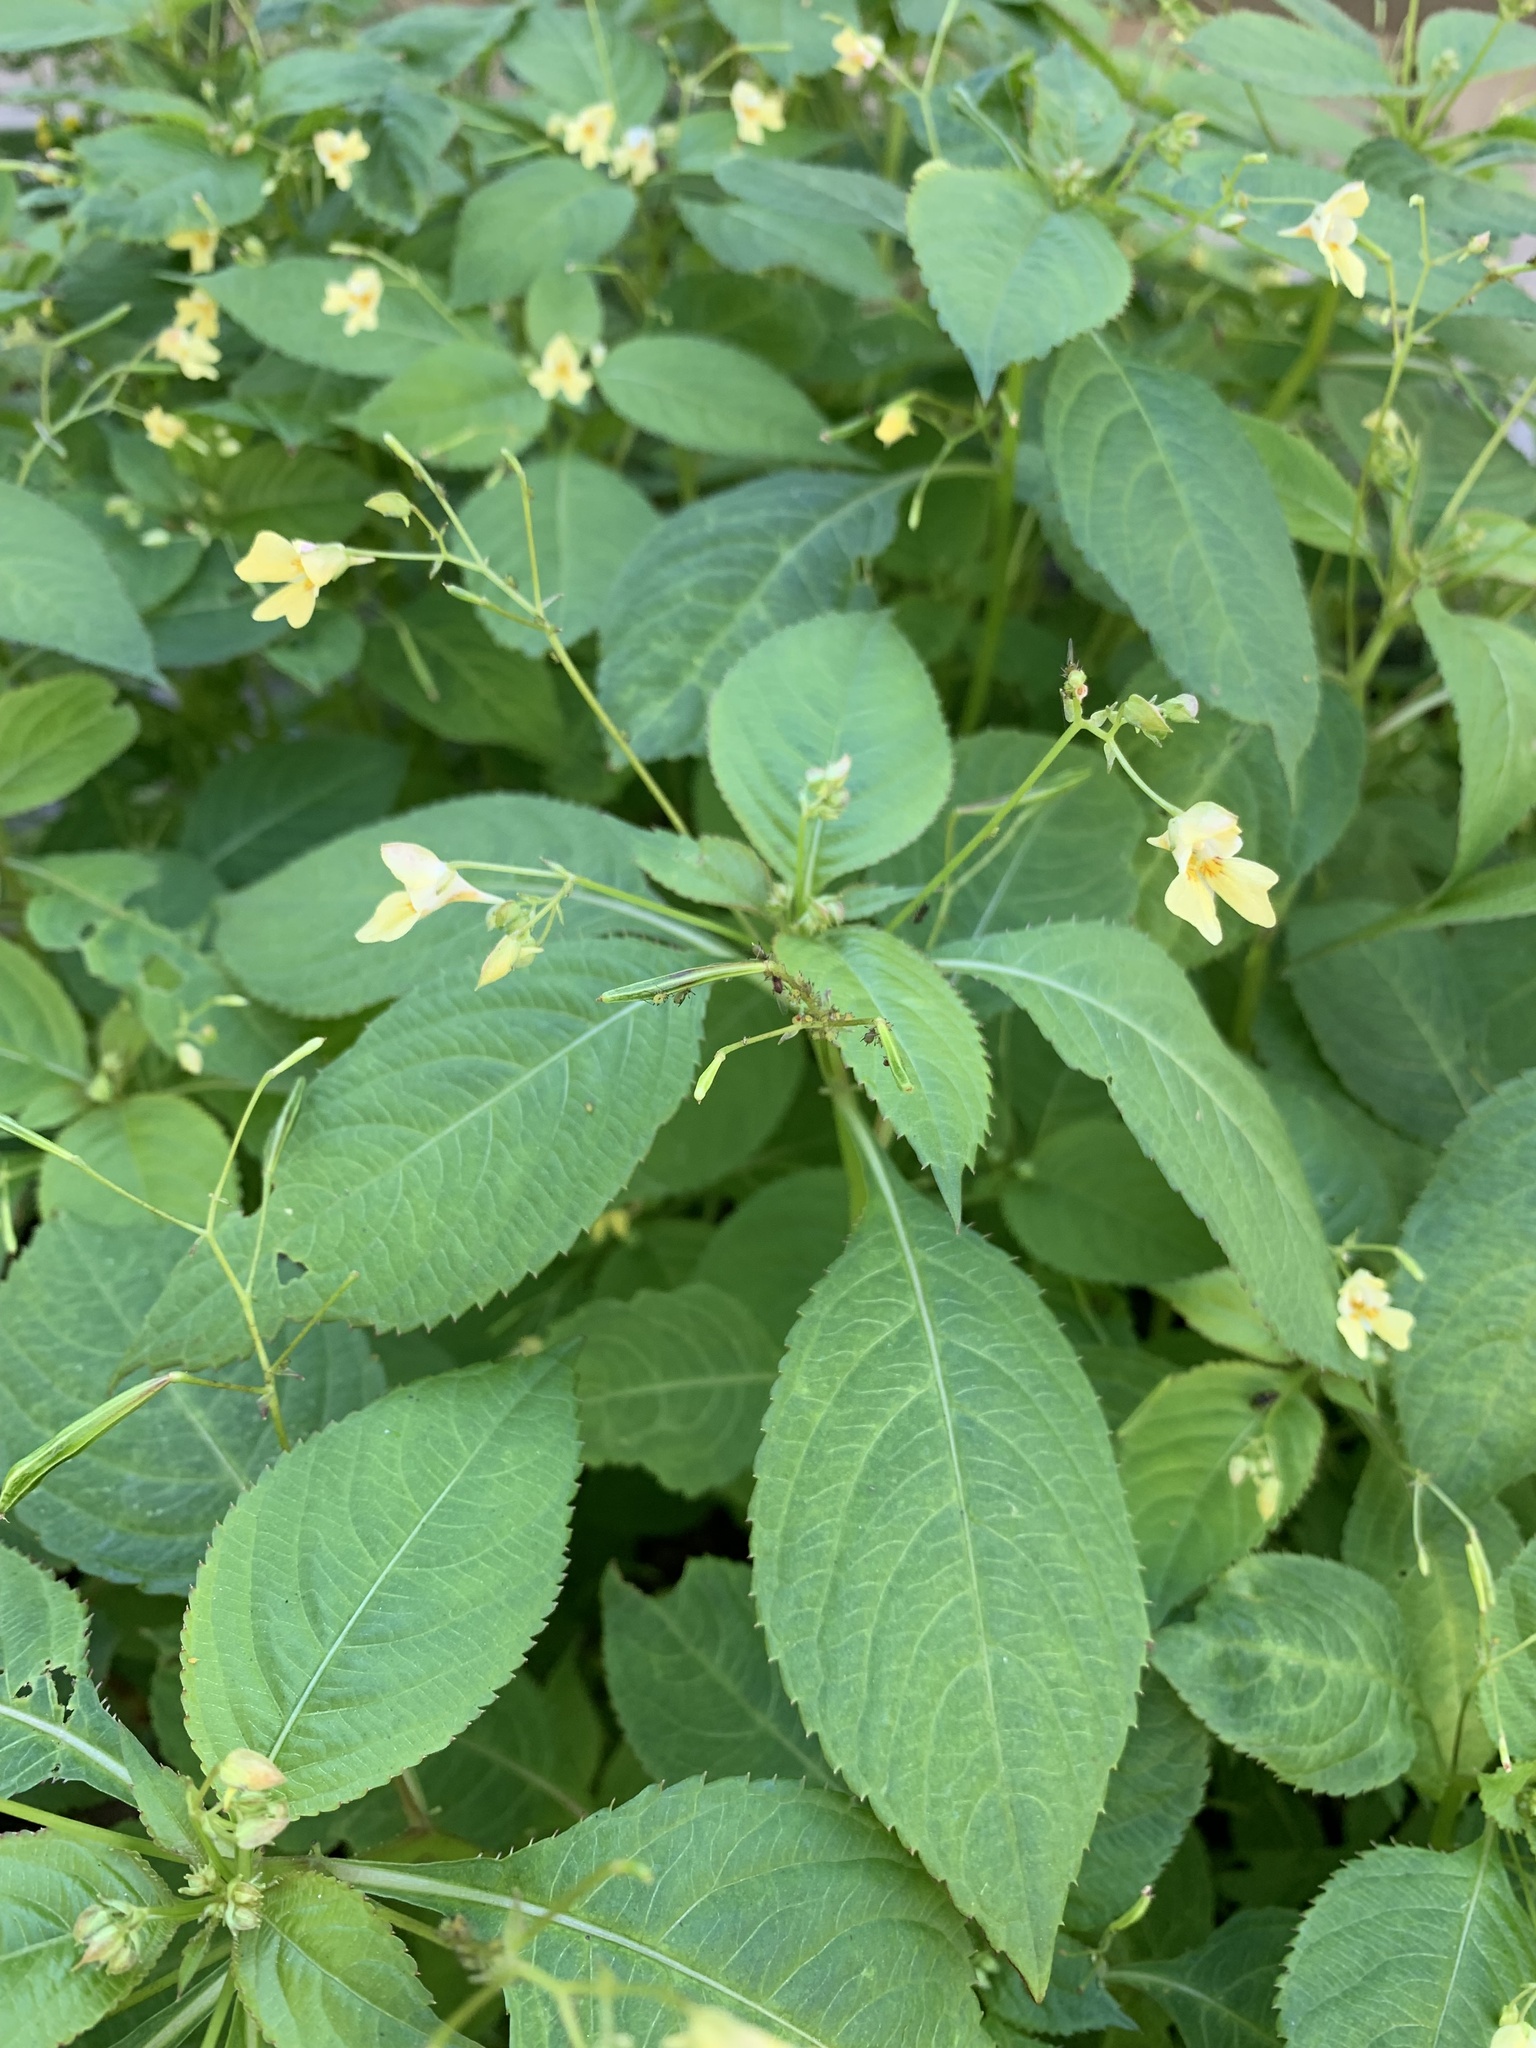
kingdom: Plantae
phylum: Tracheophyta
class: Magnoliopsida
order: Ericales
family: Balsaminaceae
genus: Impatiens
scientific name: Impatiens parviflora
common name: Small balsam
